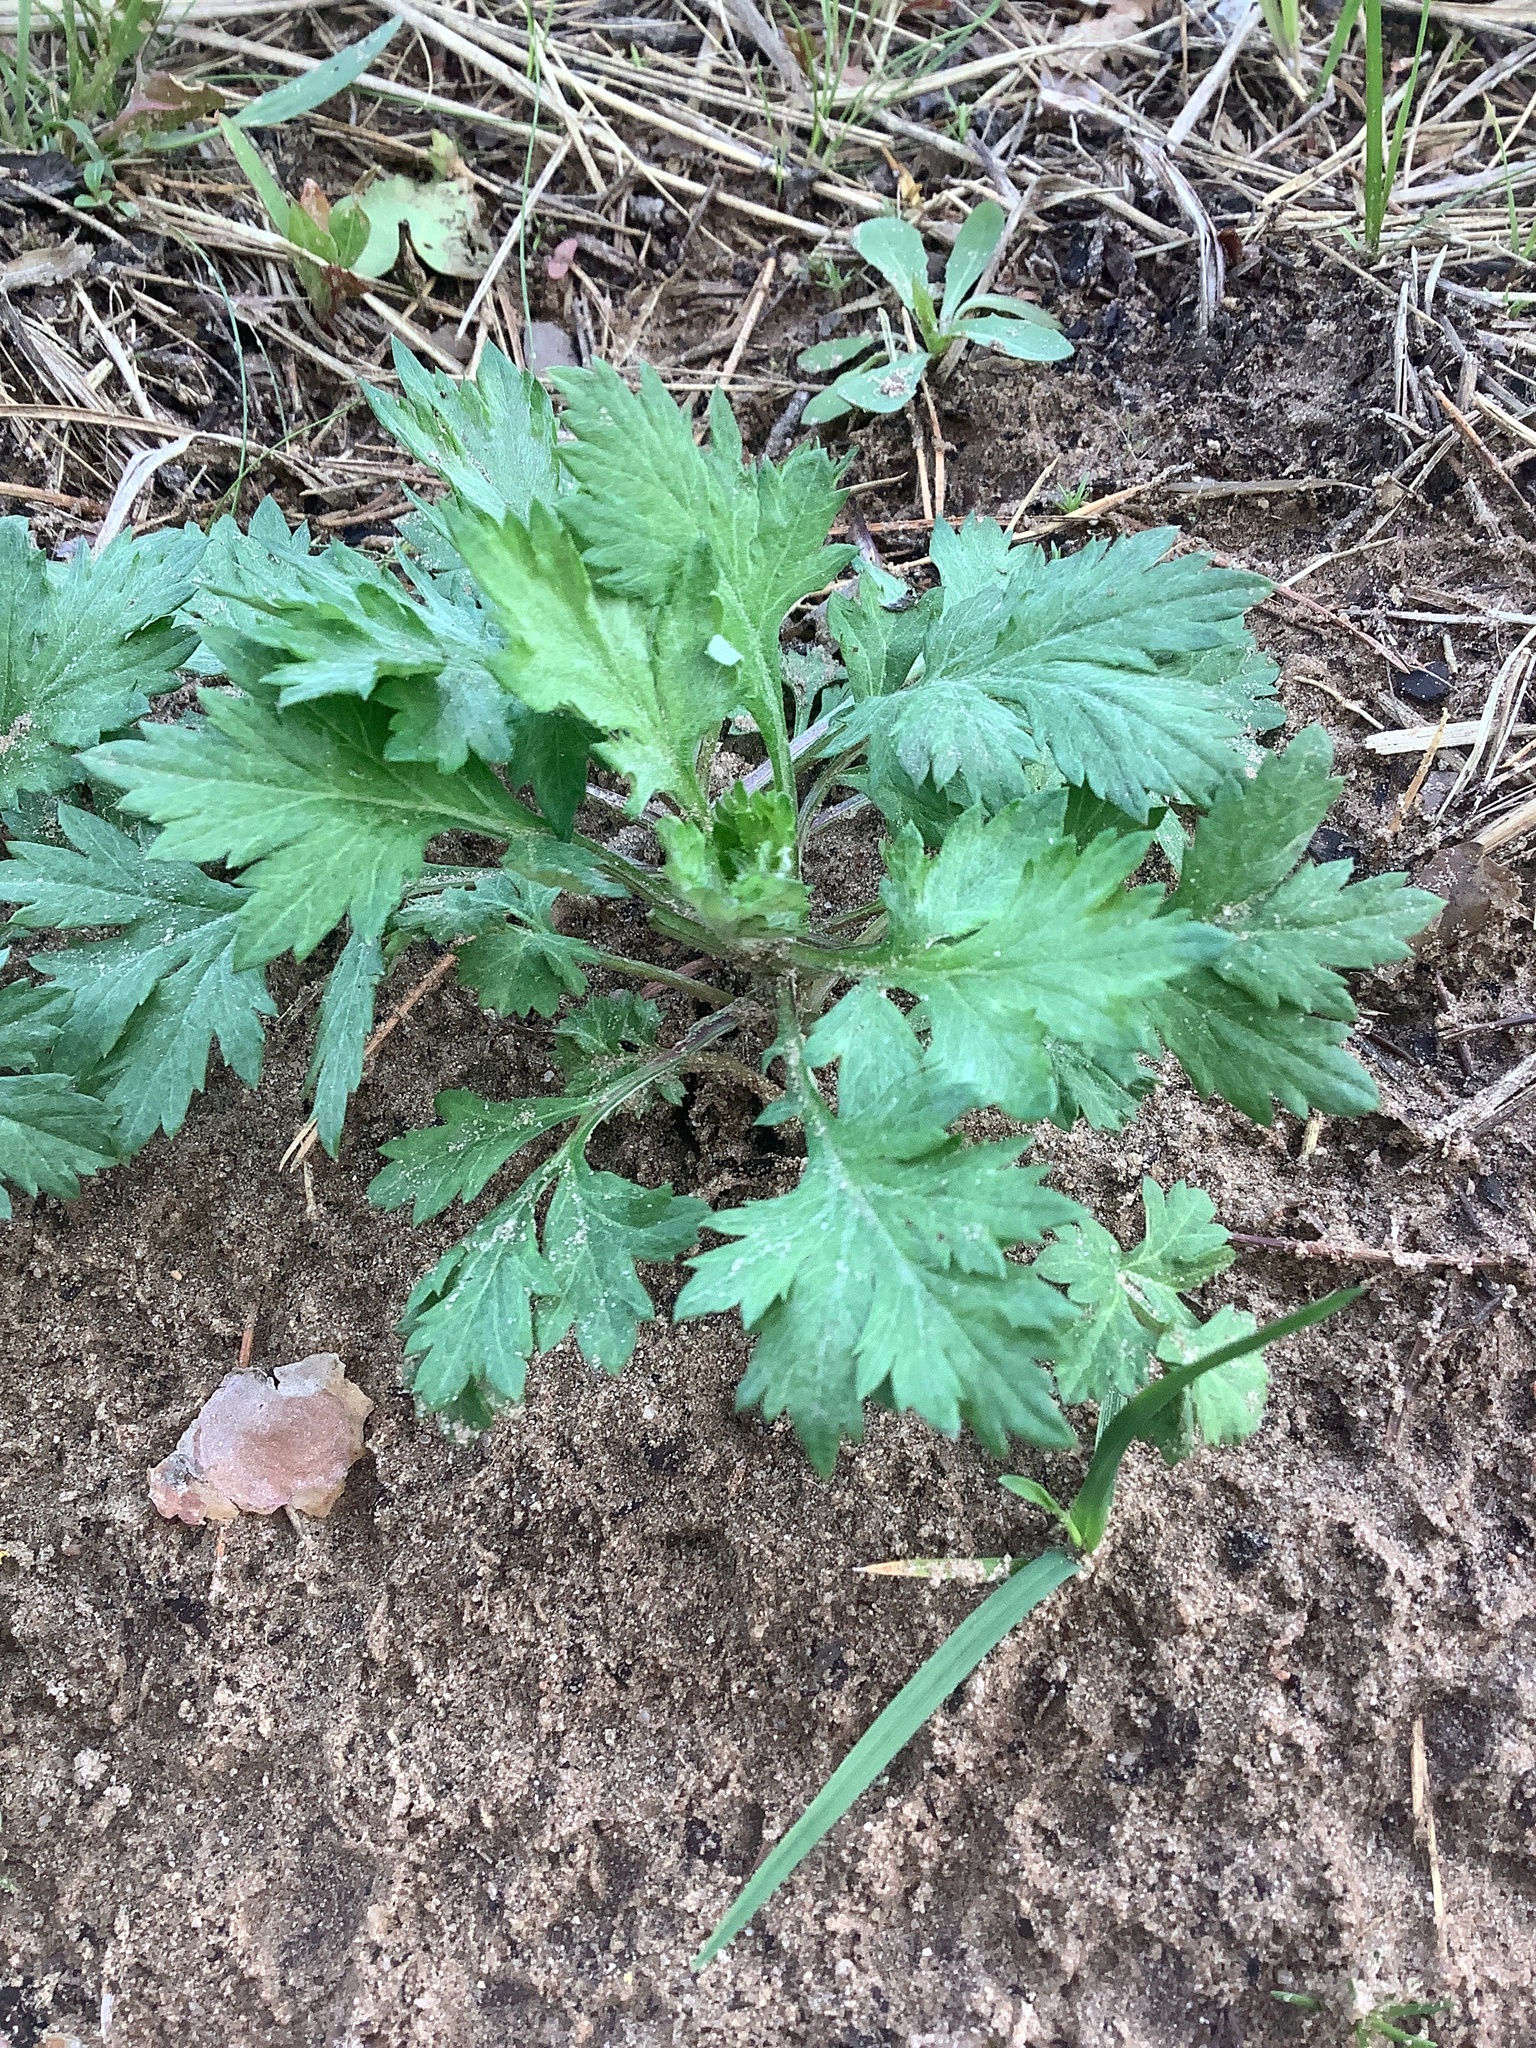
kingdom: Plantae
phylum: Tracheophyta
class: Magnoliopsida
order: Asterales
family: Asteraceae
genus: Artemisia
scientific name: Artemisia vulgaris
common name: Mugwort
